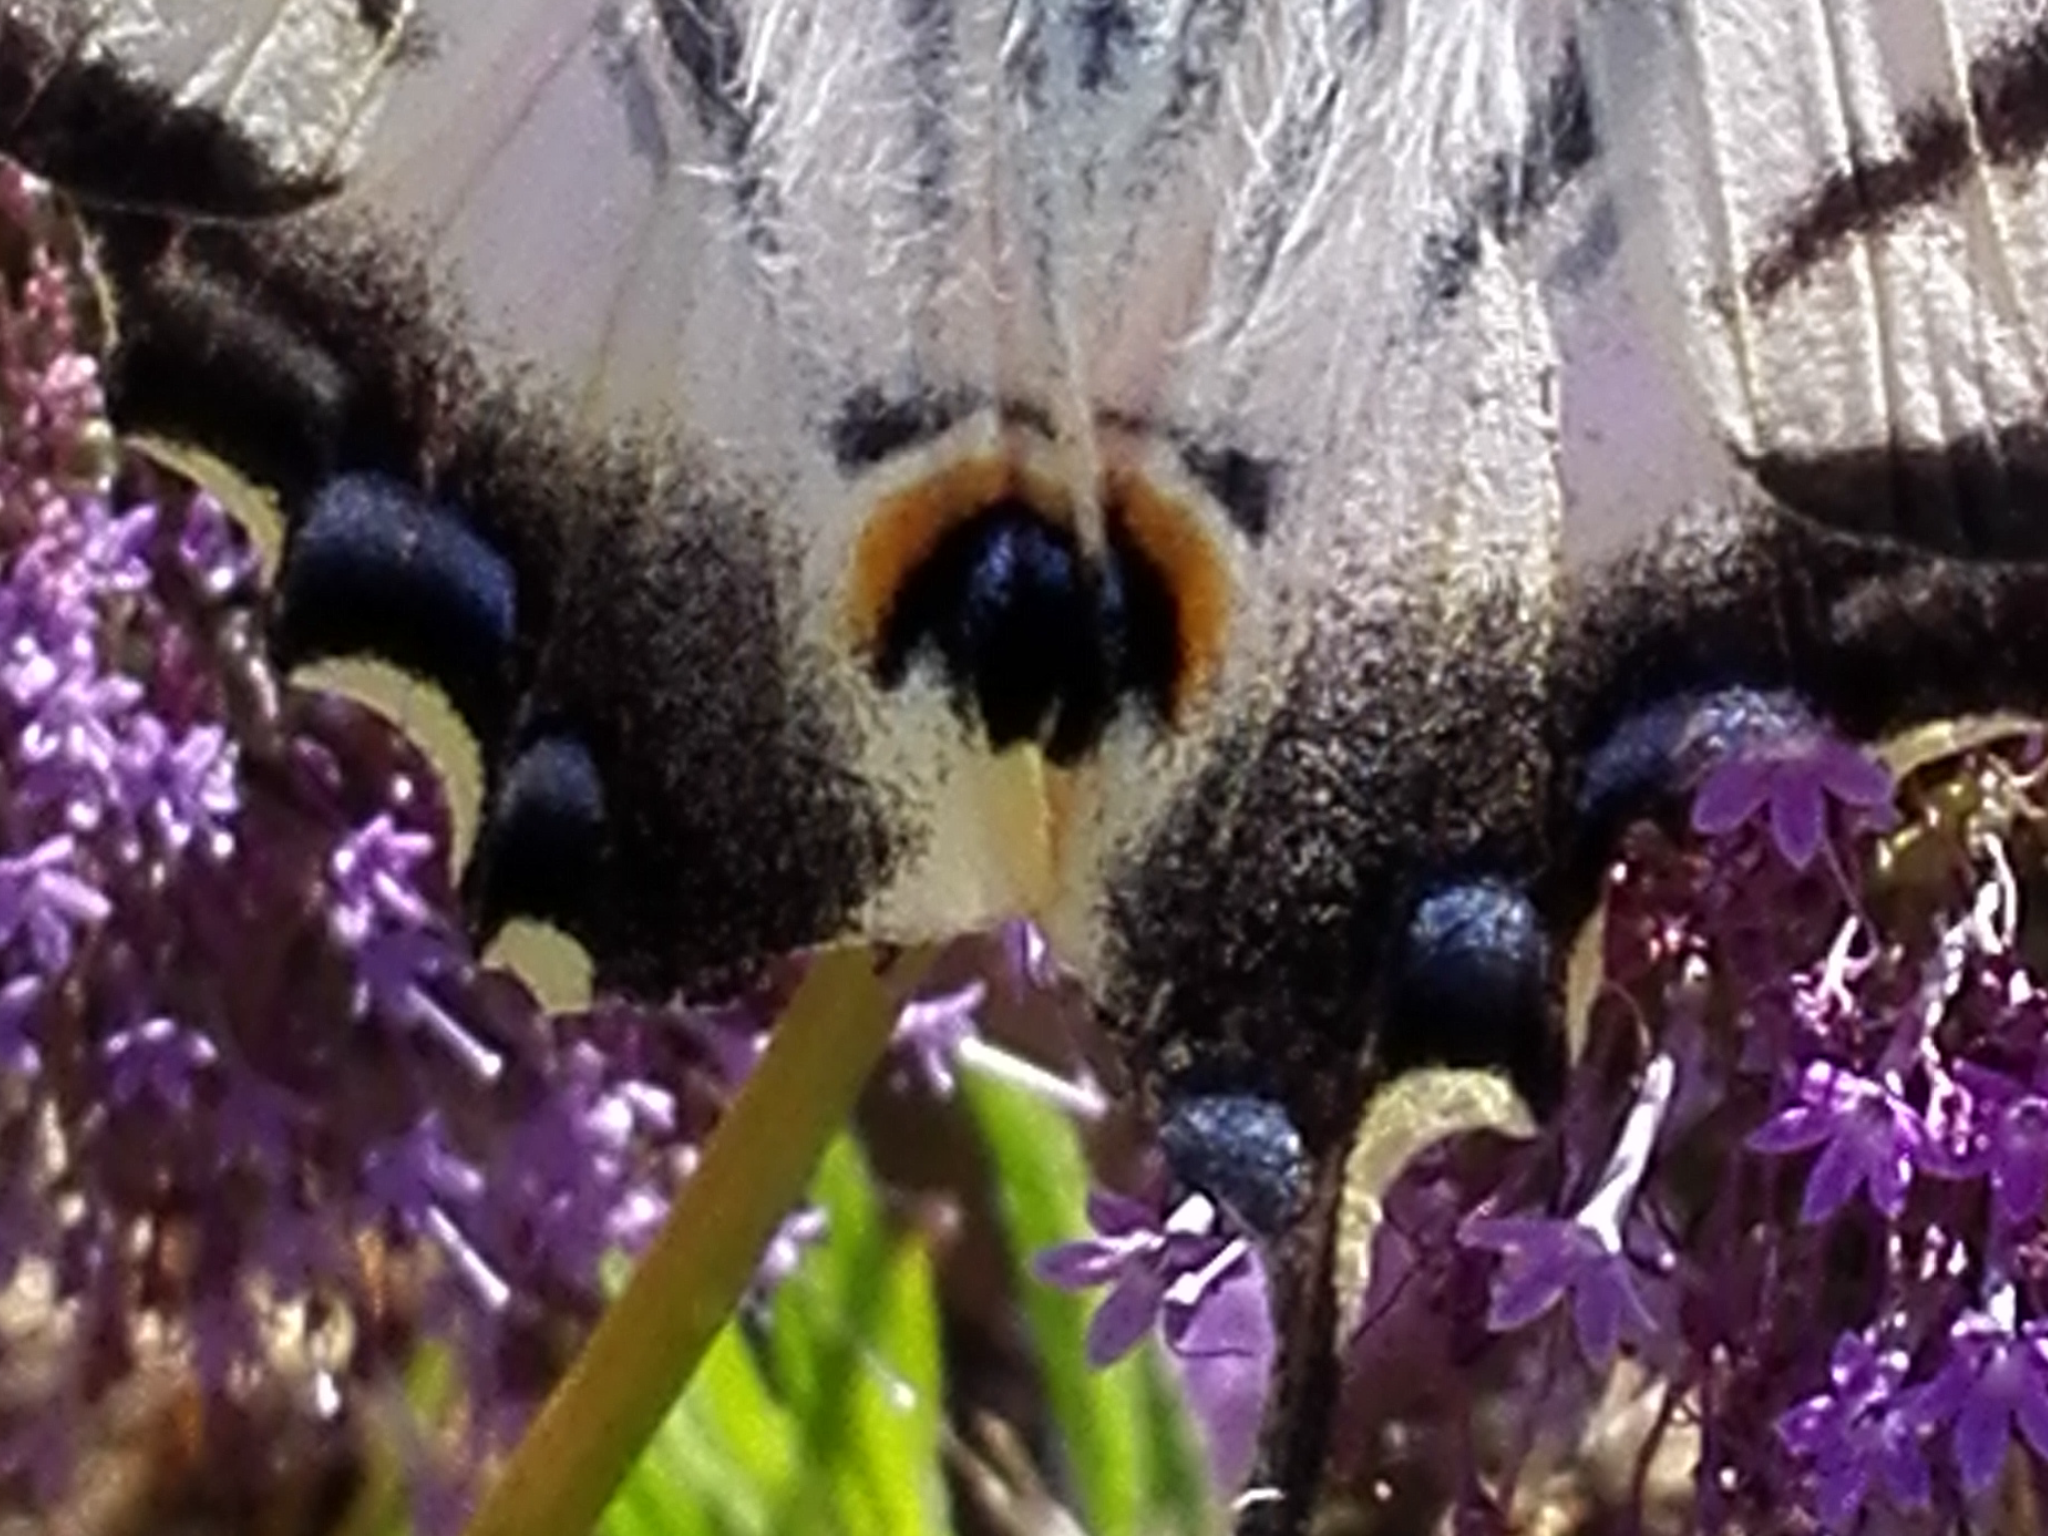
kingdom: Animalia
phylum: Arthropoda
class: Insecta
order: Lepidoptera
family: Papilionidae
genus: Iphiclides
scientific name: Iphiclides feisthamelii
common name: Iberian scarce swallowtail
